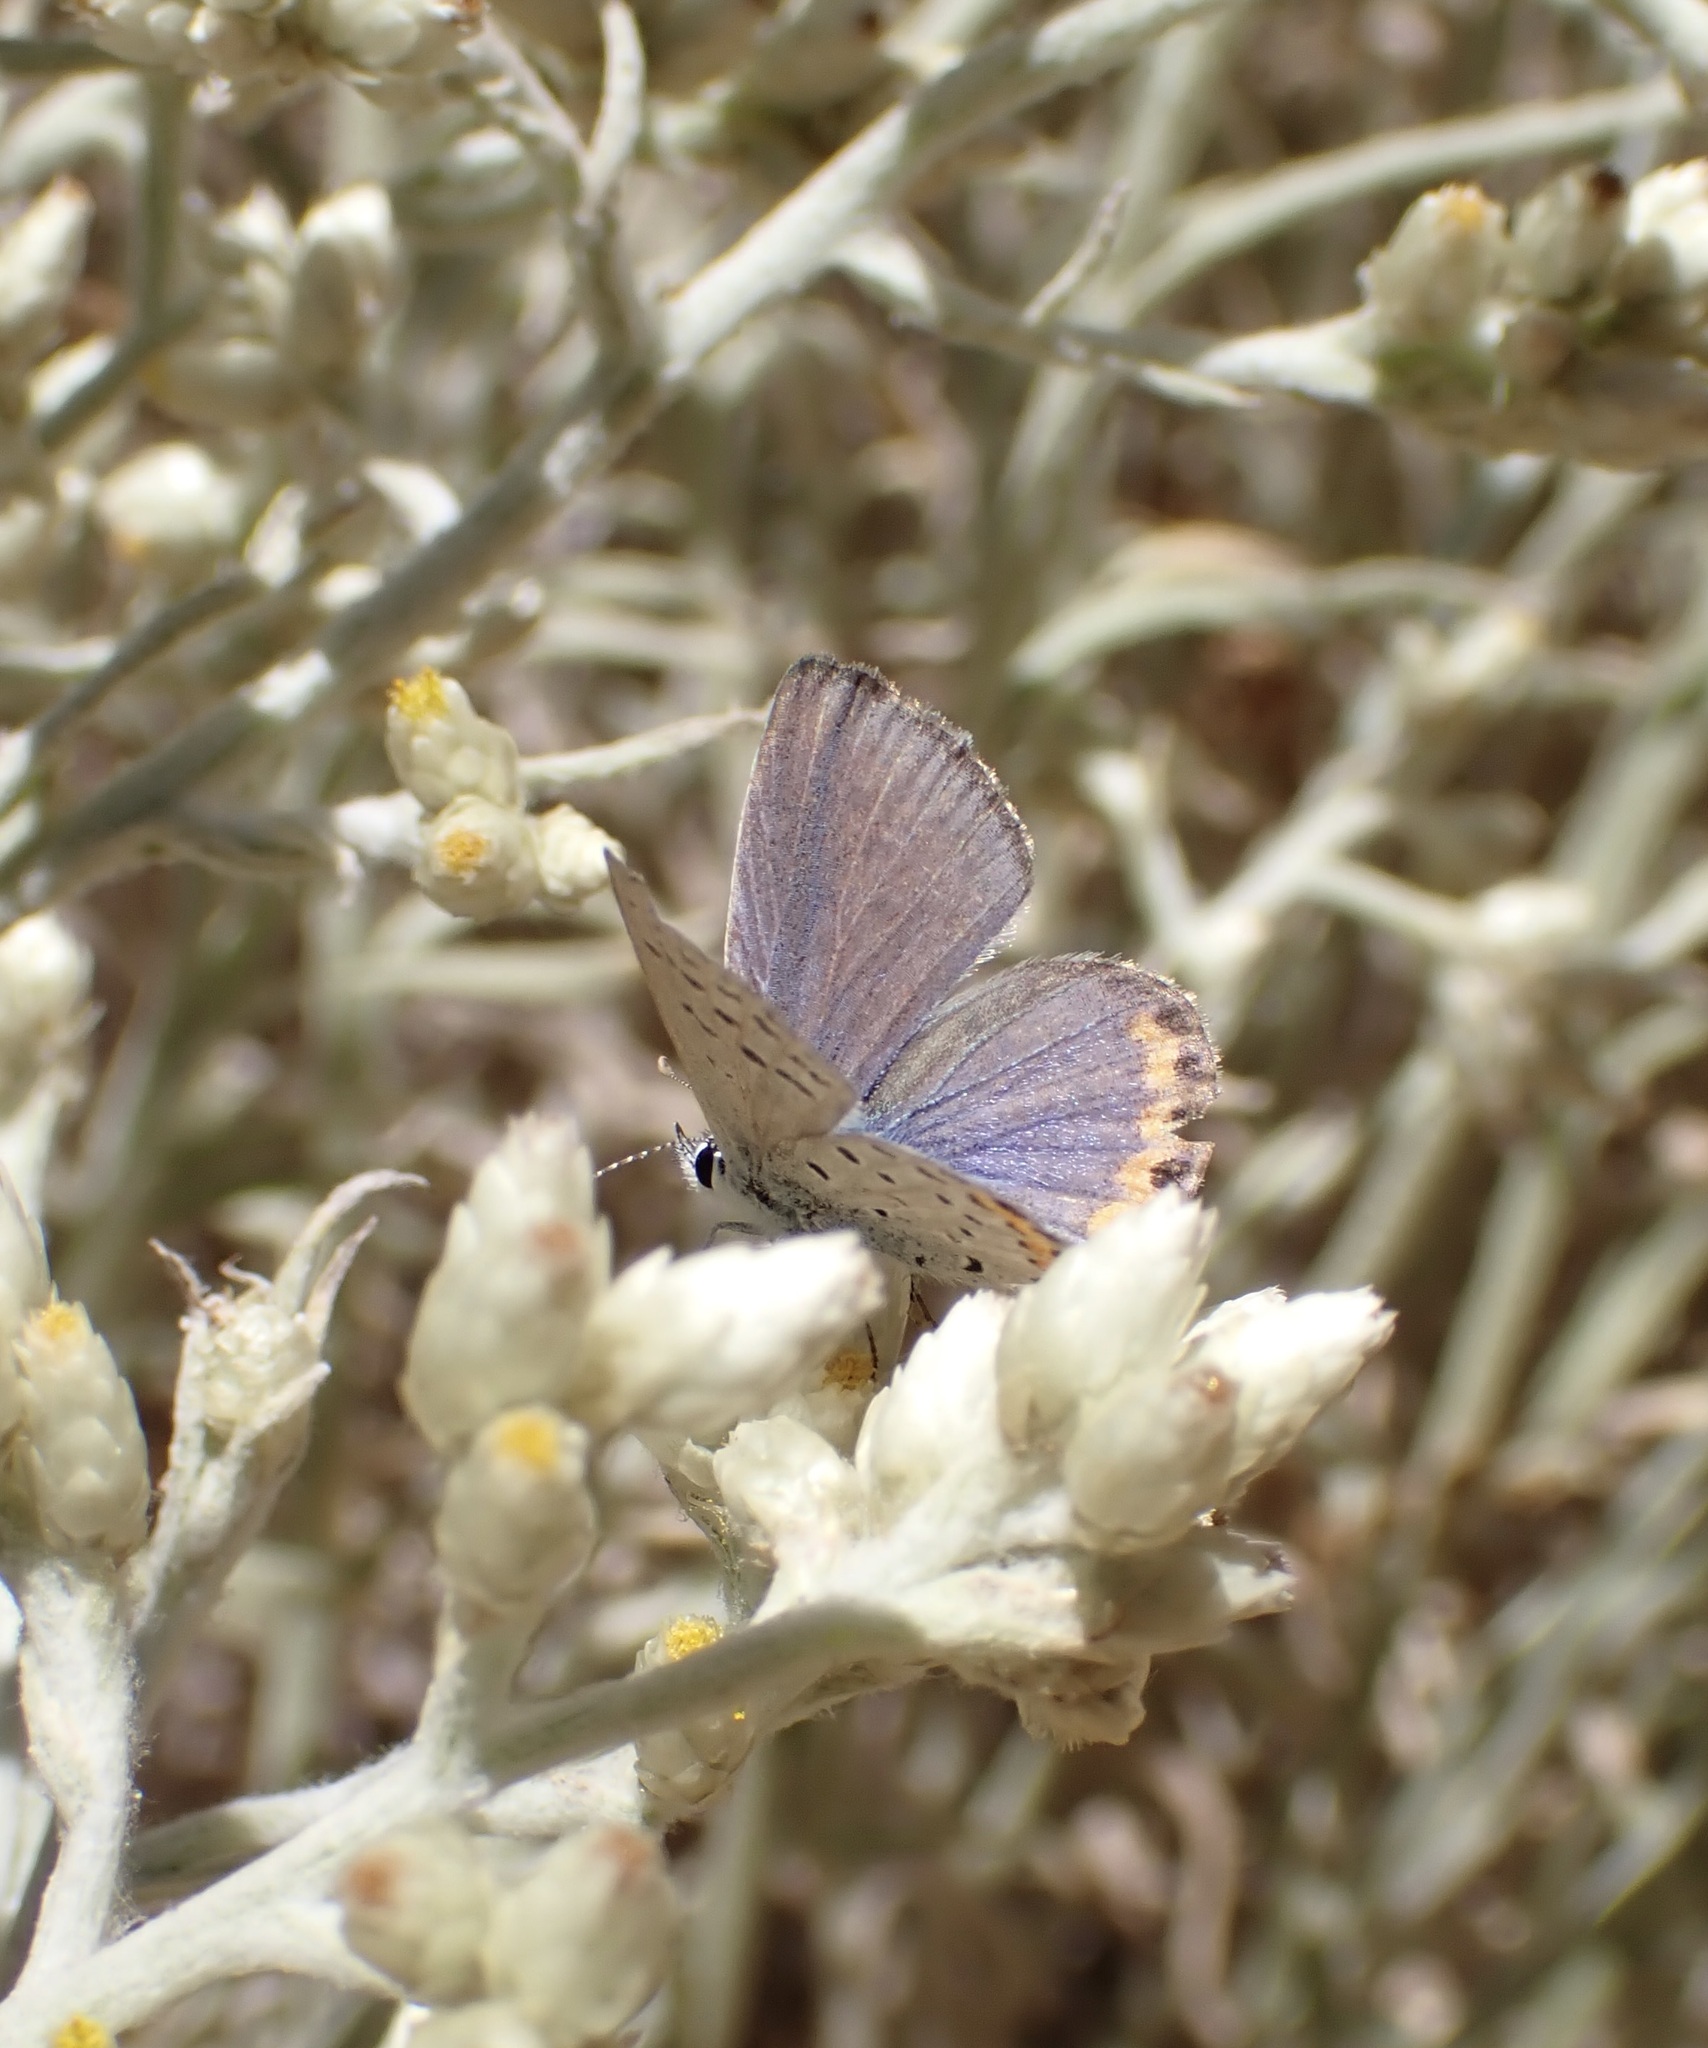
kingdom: Animalia
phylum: Arthropoda
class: Insecta
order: Lepidoptera
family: Lycaenidae
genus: Icaricia
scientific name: Icaricia acmon
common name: Acmon blue
